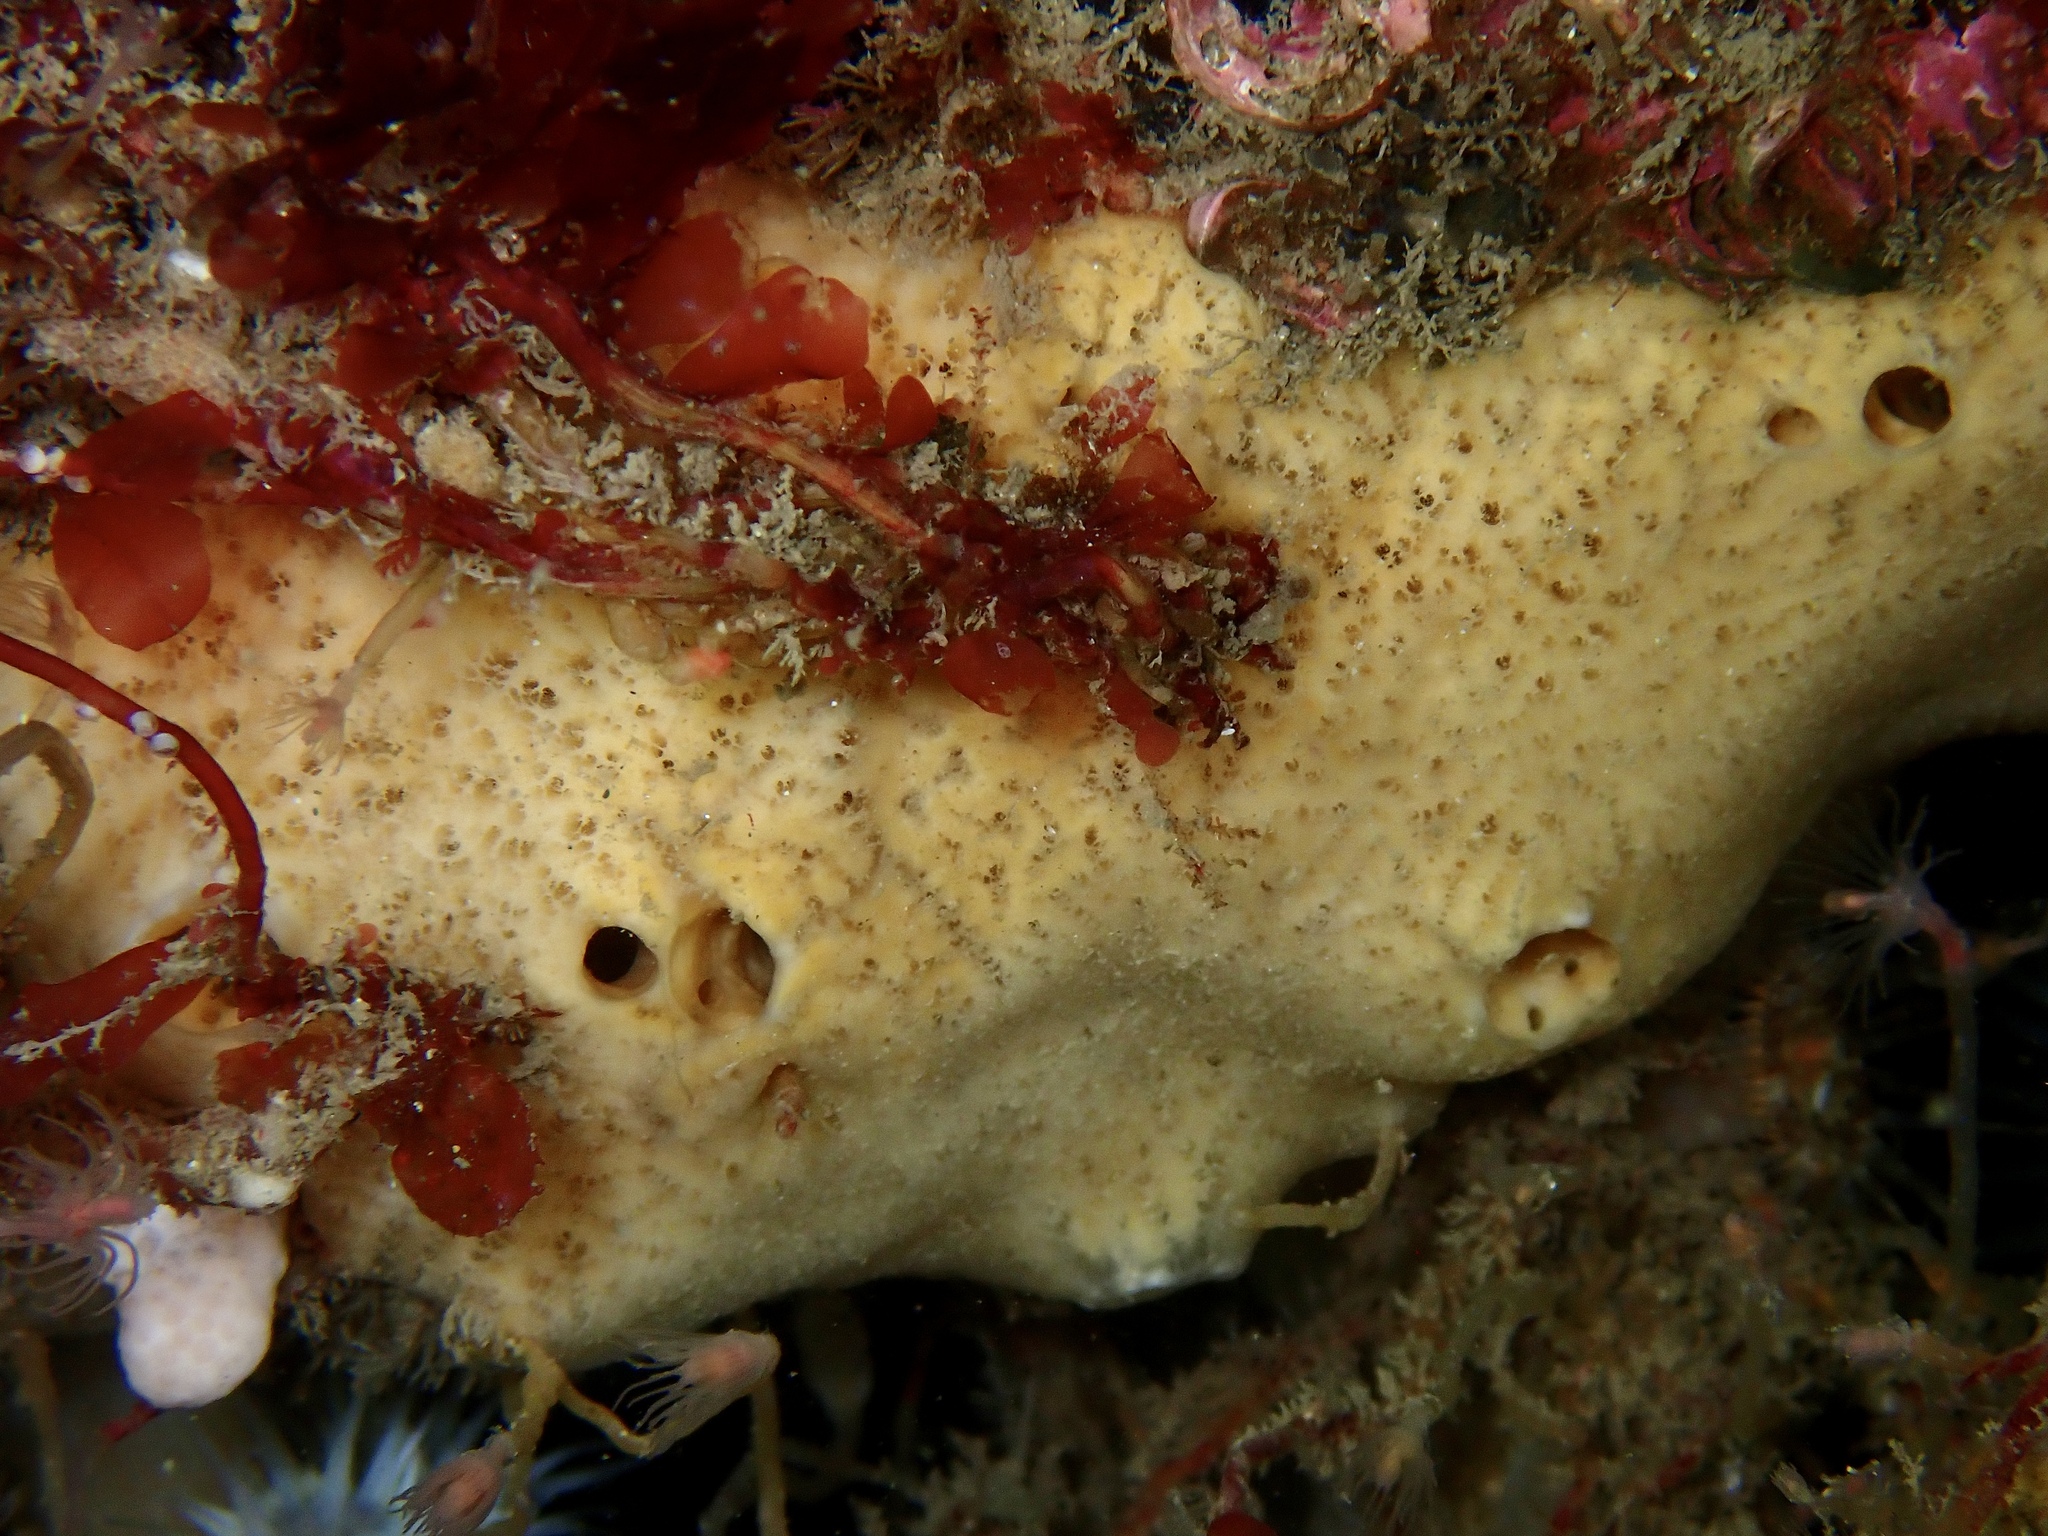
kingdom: Animalia
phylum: Porifera
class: Demospongiae
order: Poecilosclerida
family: Myxillidae
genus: Myxilla
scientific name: Myxilla incrustans
